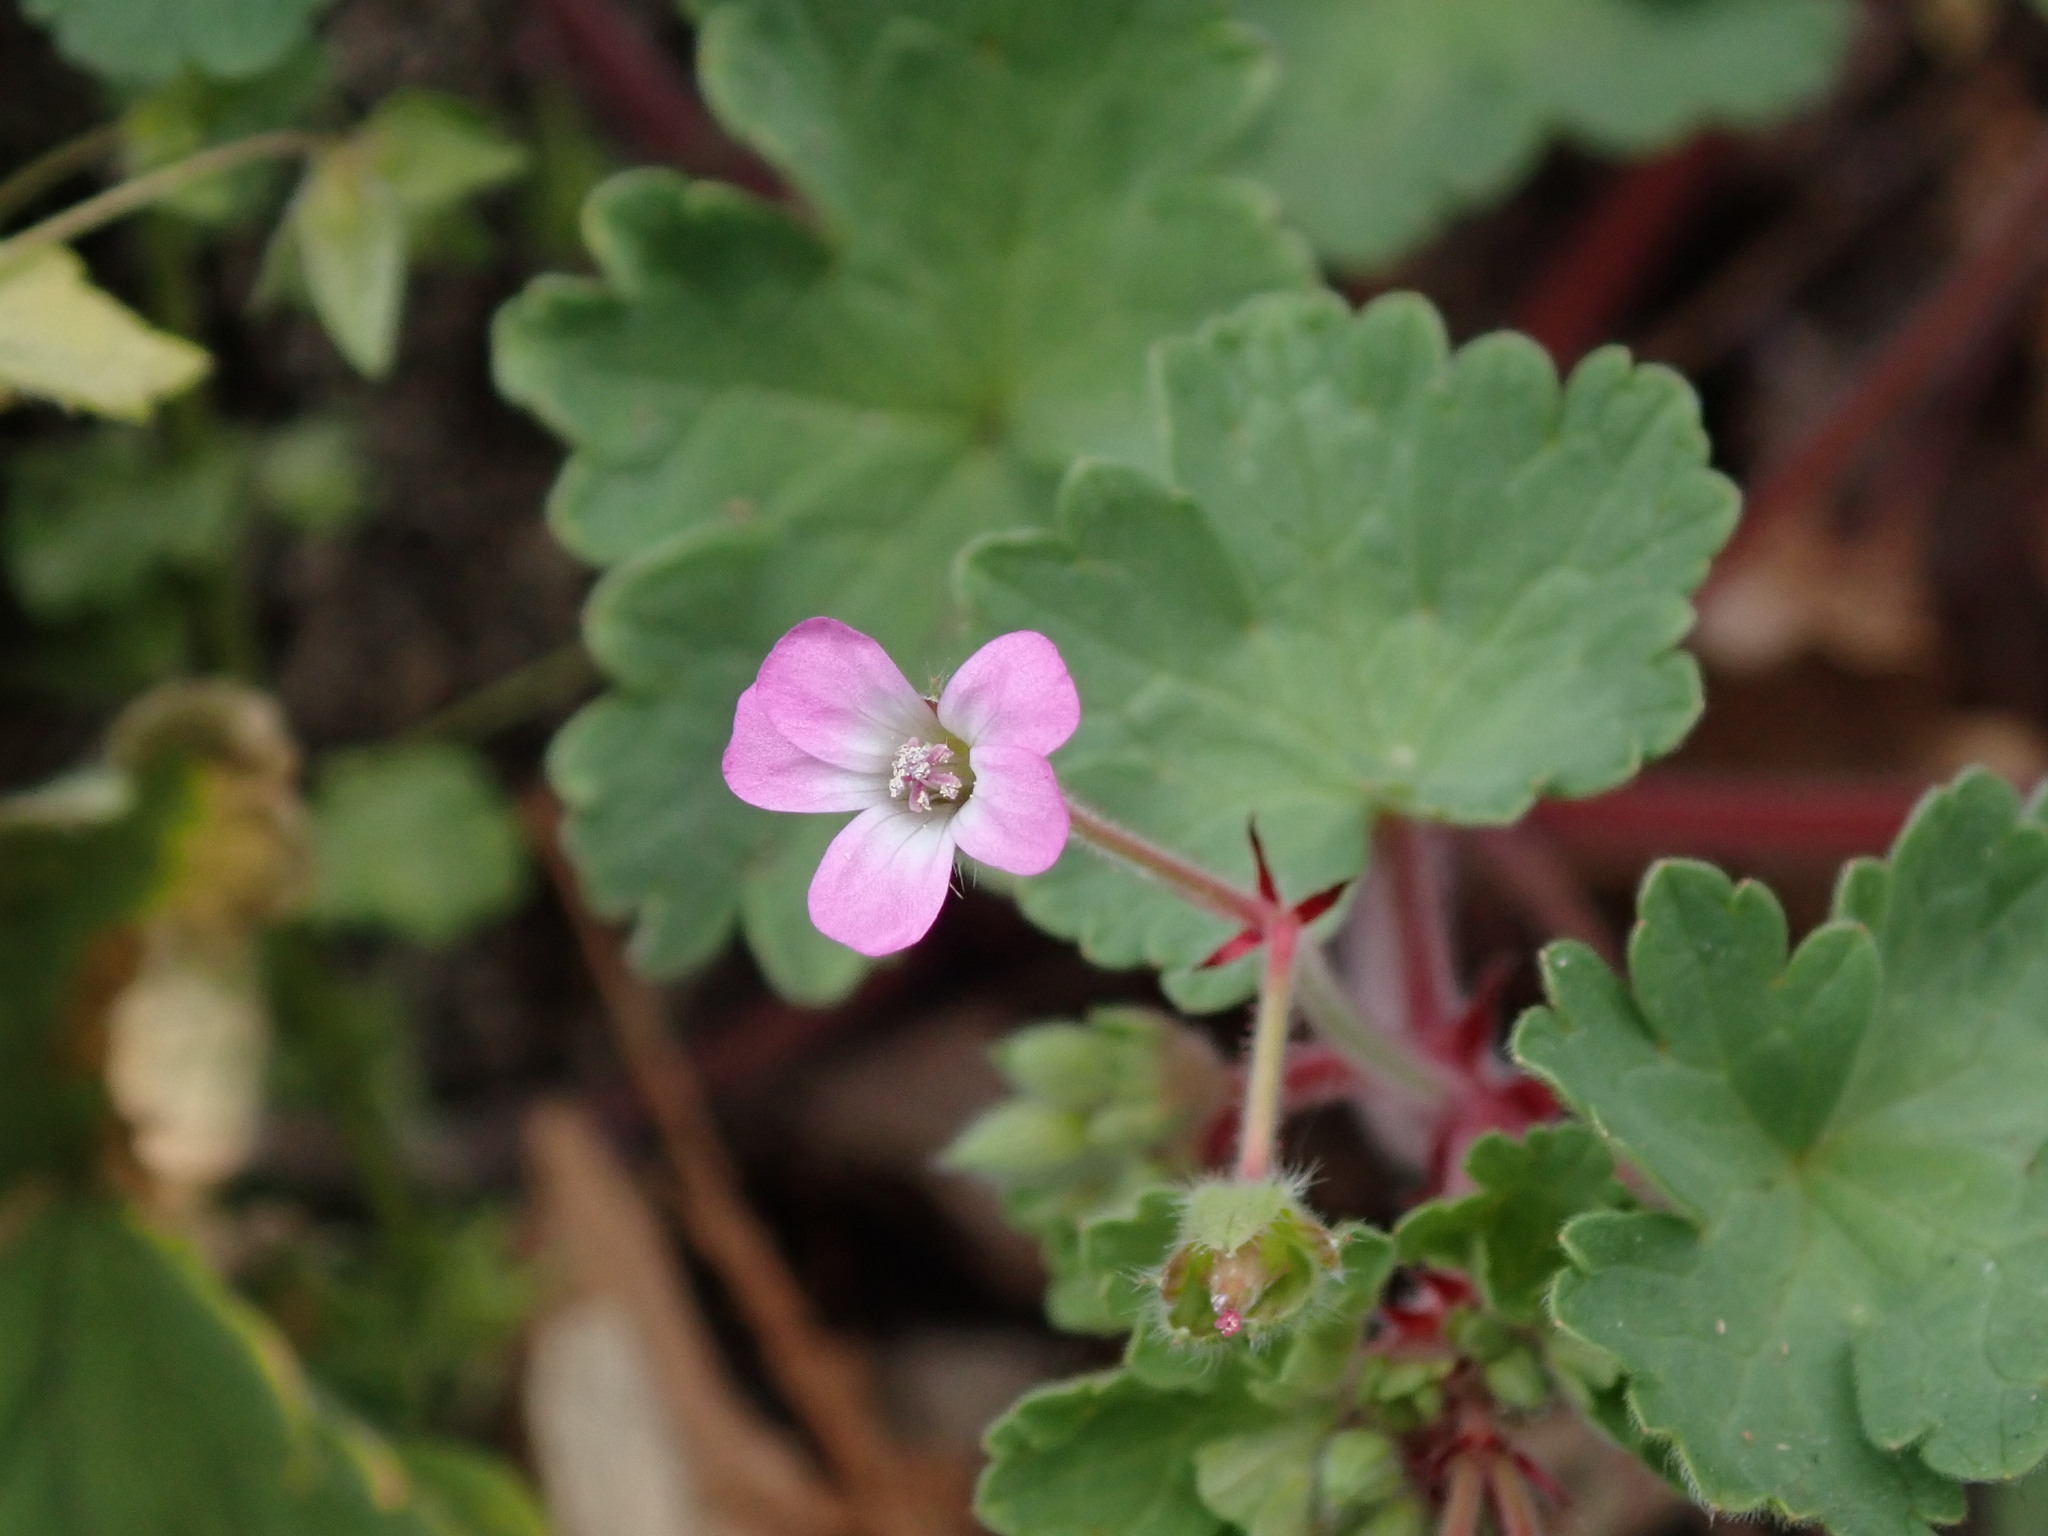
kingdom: Plantae
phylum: Tracheophyta
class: Magnoliopsida
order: Geraniales
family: Geraniaceae
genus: Geranium
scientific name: Geranium rotundifolium
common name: Round-leaved crane's-bill
